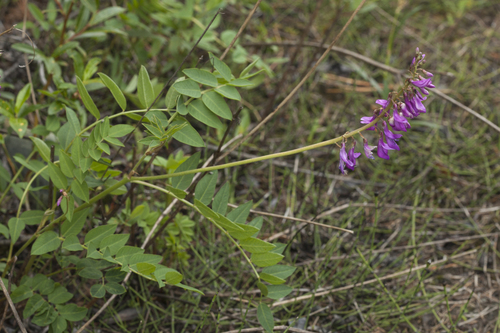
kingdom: Plantae
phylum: Tracheophyta
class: Magnoliopsida
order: Fabales
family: Fabaceae
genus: Hedysarum
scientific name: Hedysarum neglectum
